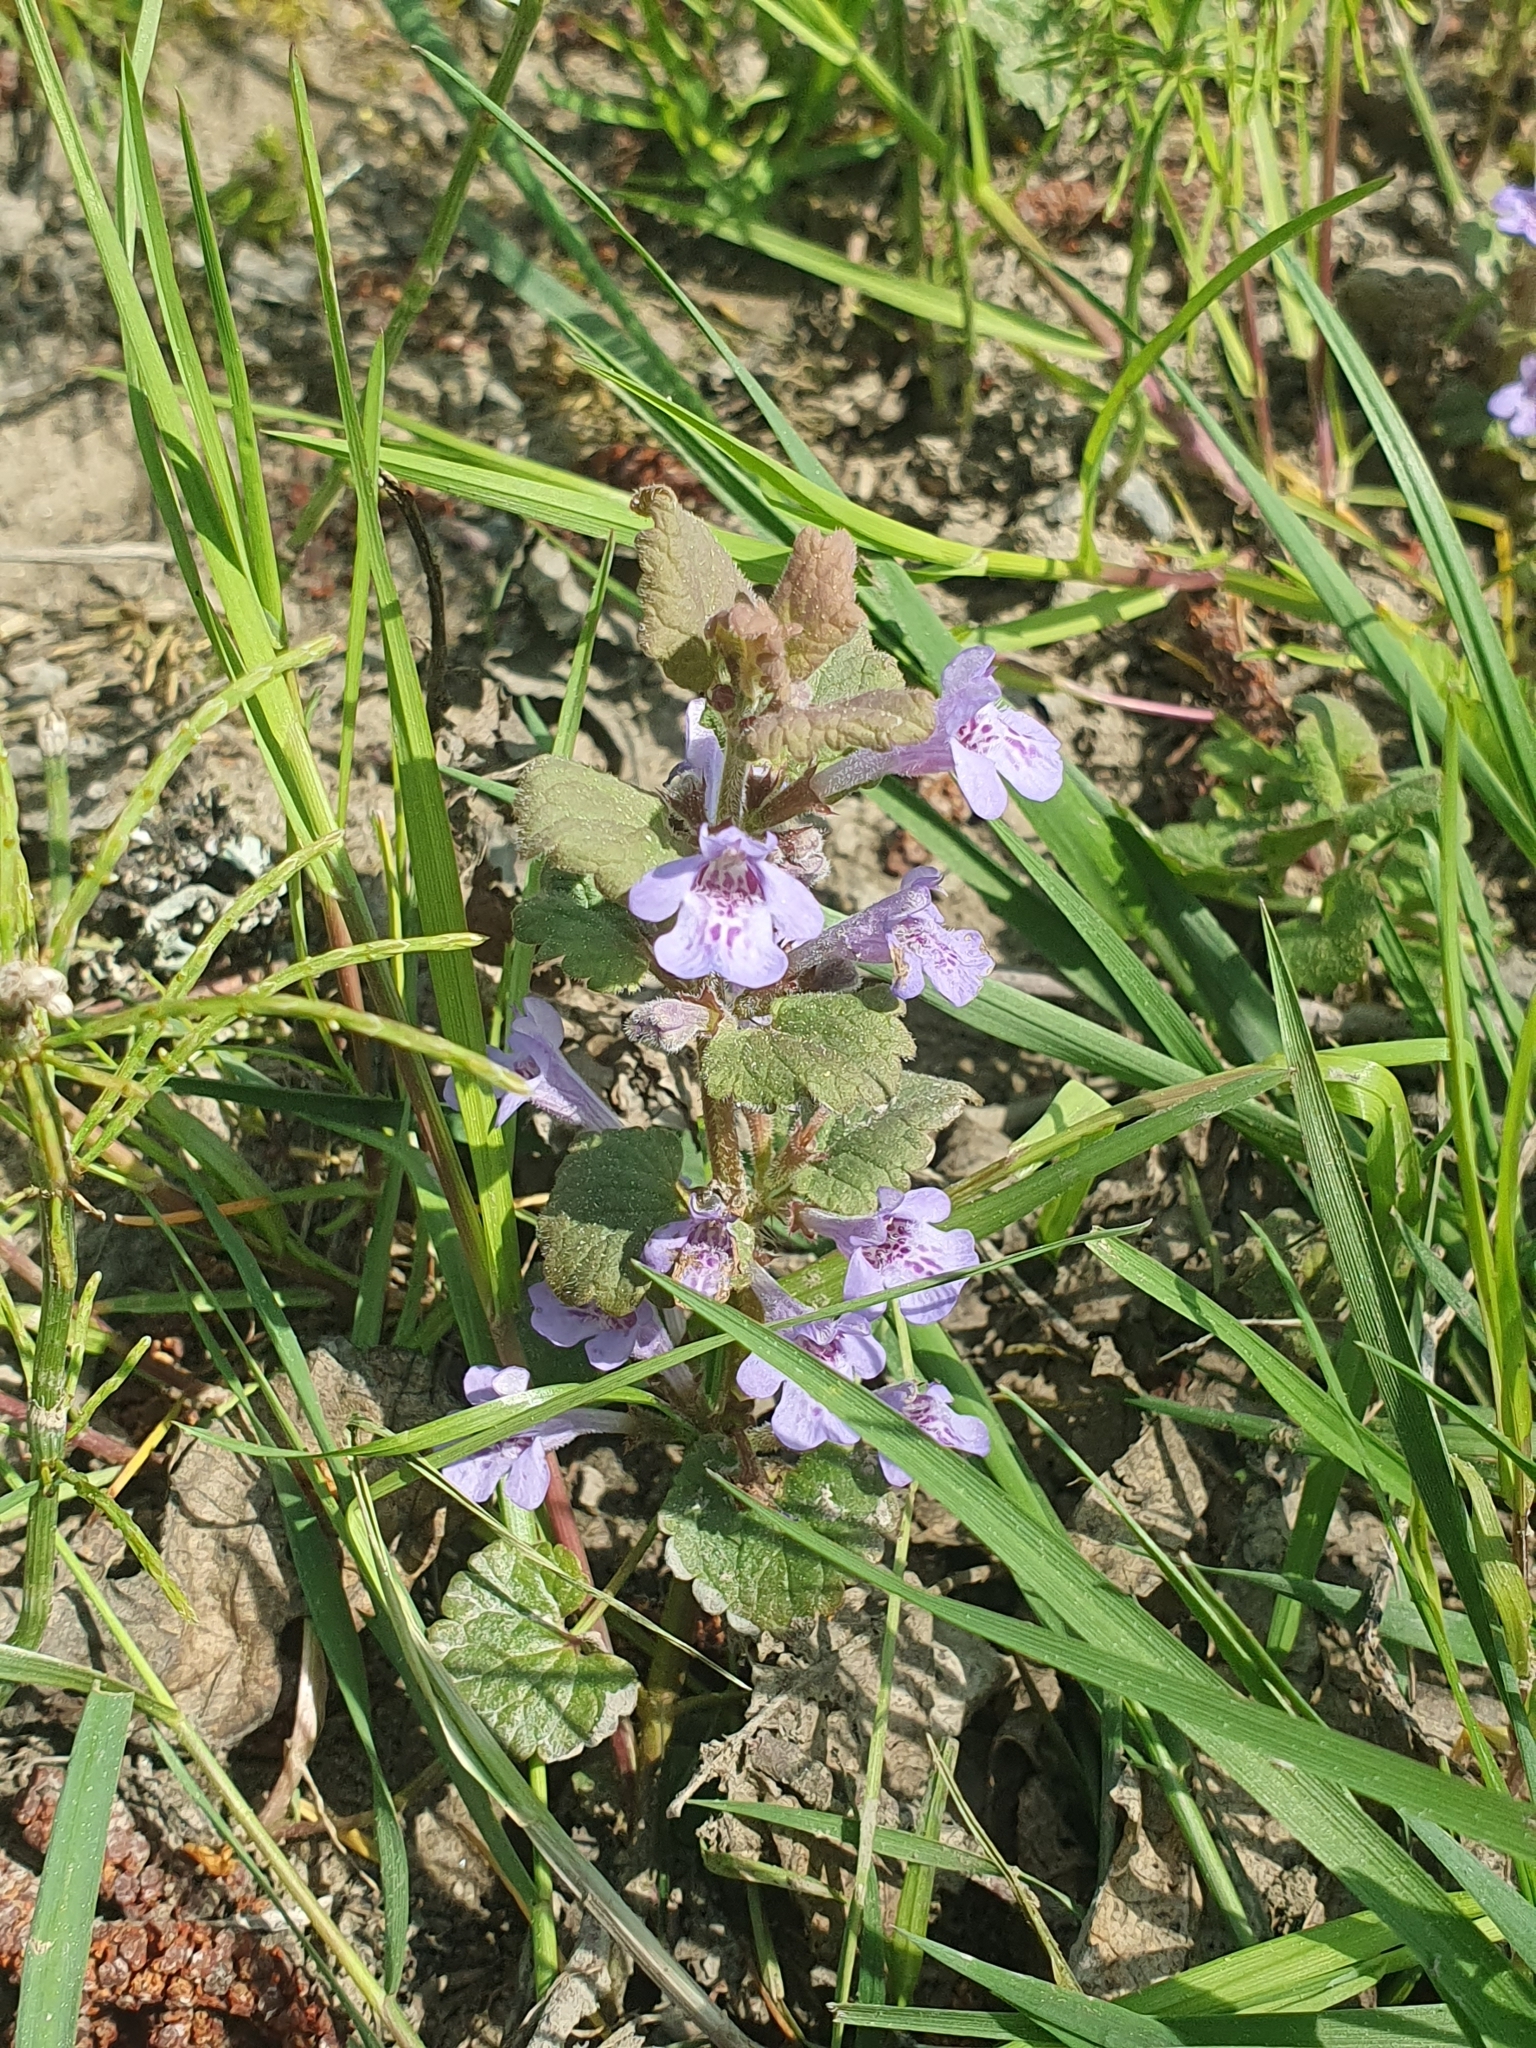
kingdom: Plantae
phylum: Tracheophyta
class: Magnoliopsida
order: Lamiales
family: Lamiaceae
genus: Glechoma
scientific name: Glechoma hederacea
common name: Ground ivy
